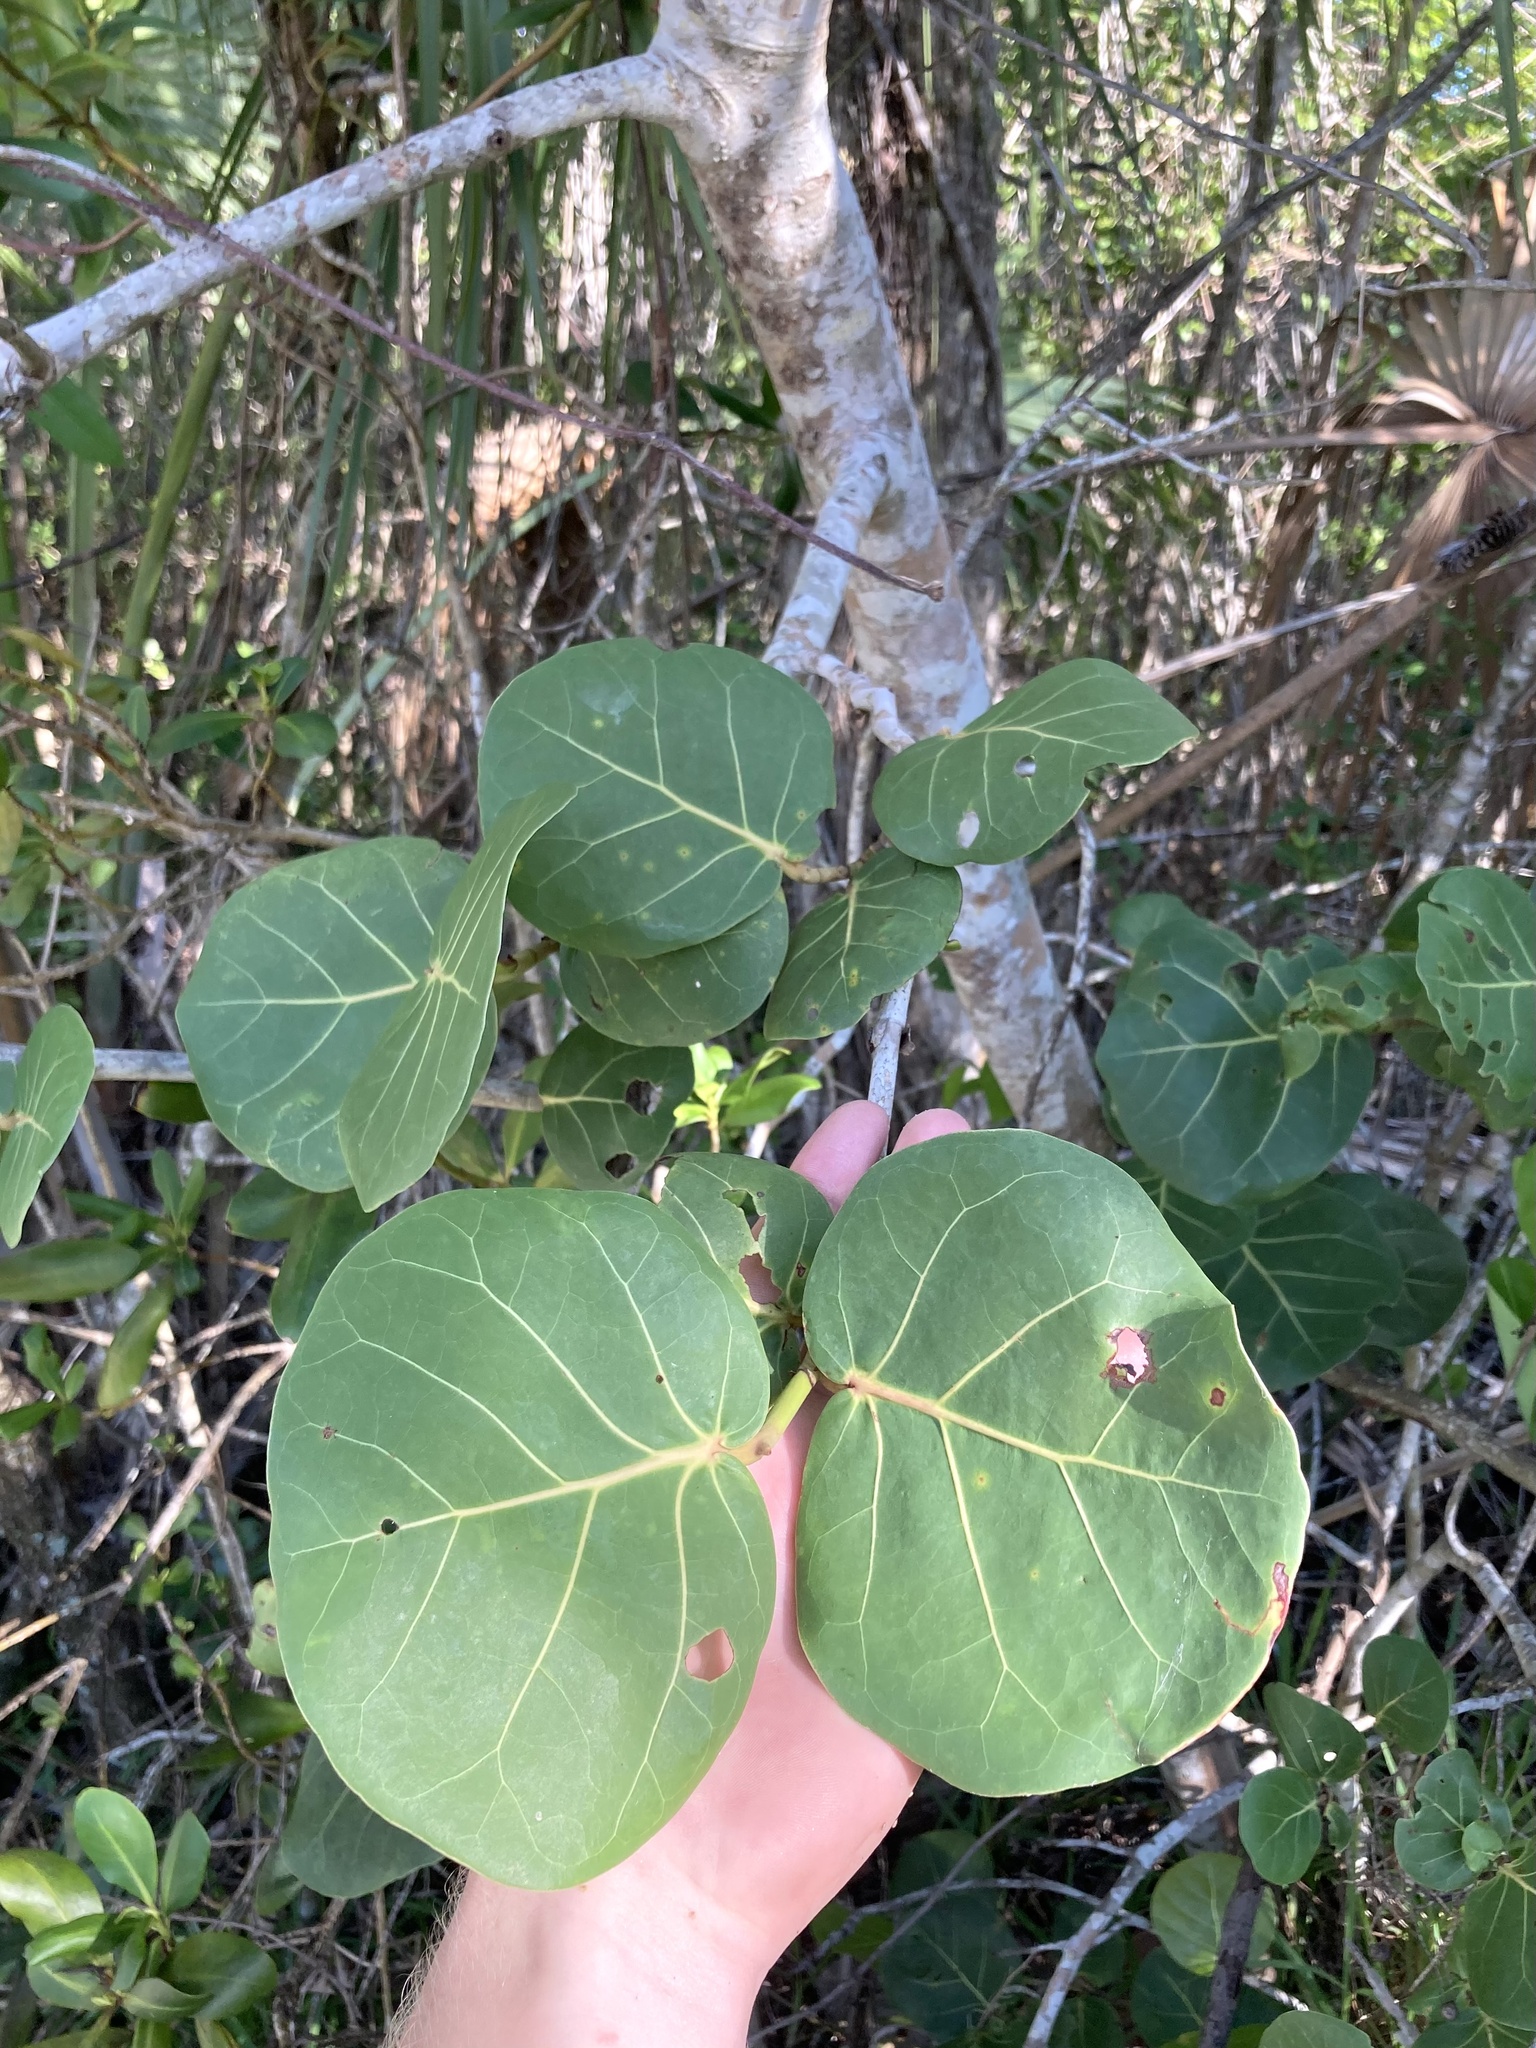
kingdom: Plantae
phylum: Tracheophyta
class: Magnoliopsida
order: Caryophyllales
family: Polygonaceae
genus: Coccoloba
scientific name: Coccoloba uvifera
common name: Seagrape
